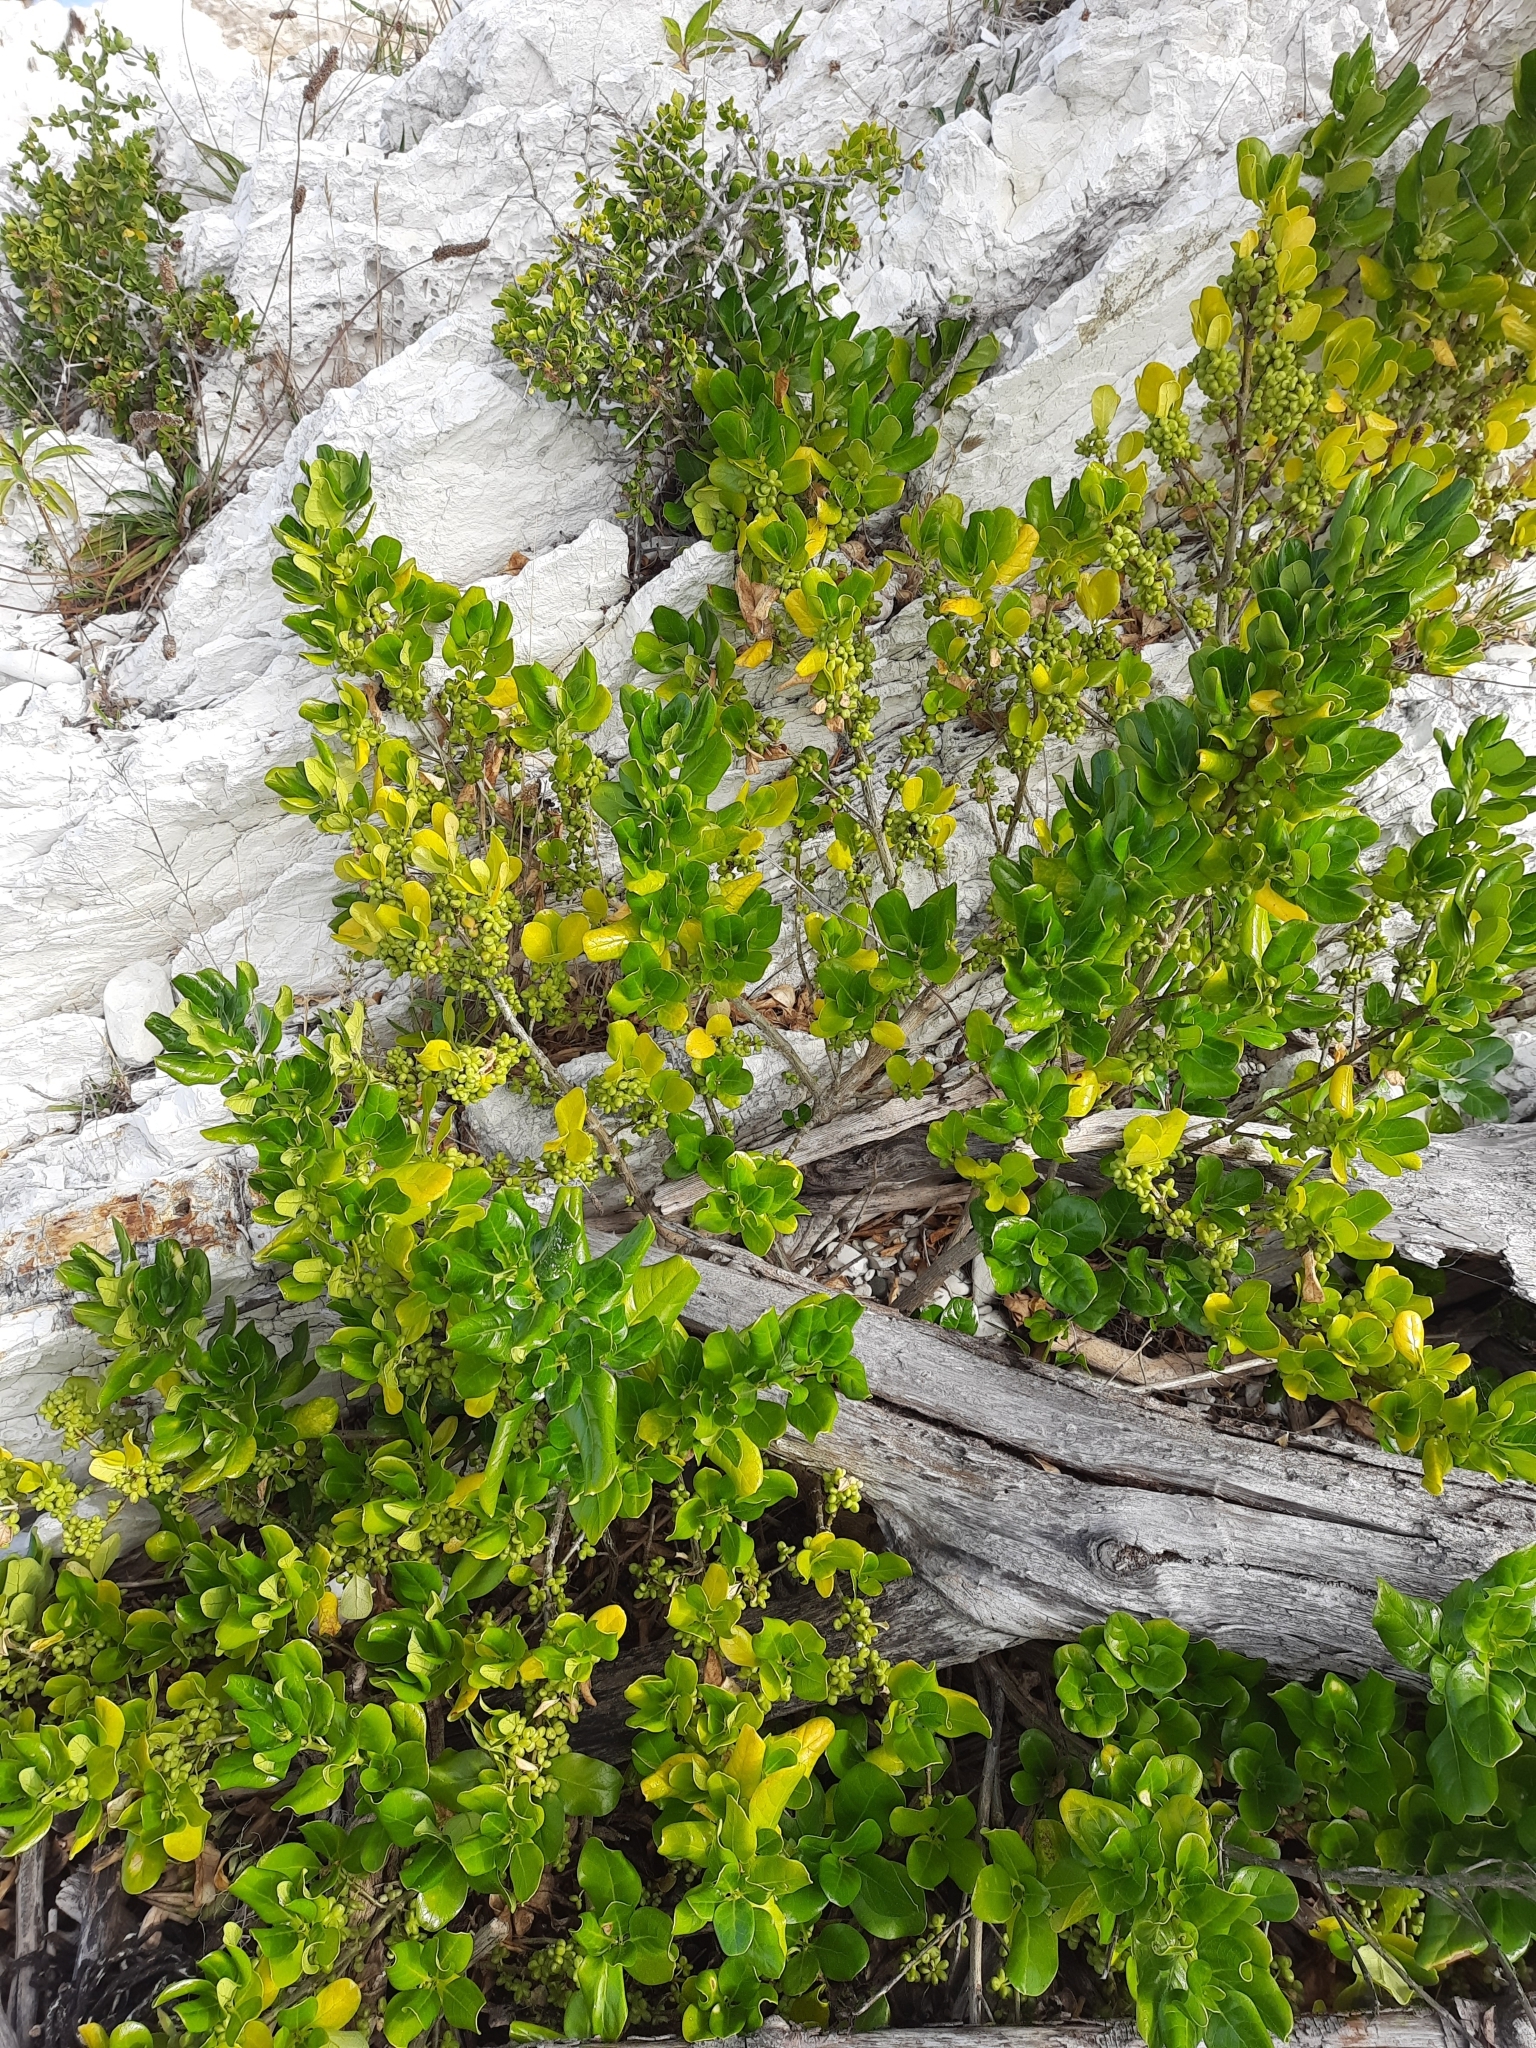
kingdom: Plantae
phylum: Tracheophyta
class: Magnoliopsida
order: Gentianales
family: Rubiaceae
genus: Coprosma
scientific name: Coprosma repens
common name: Tree bedstraw
